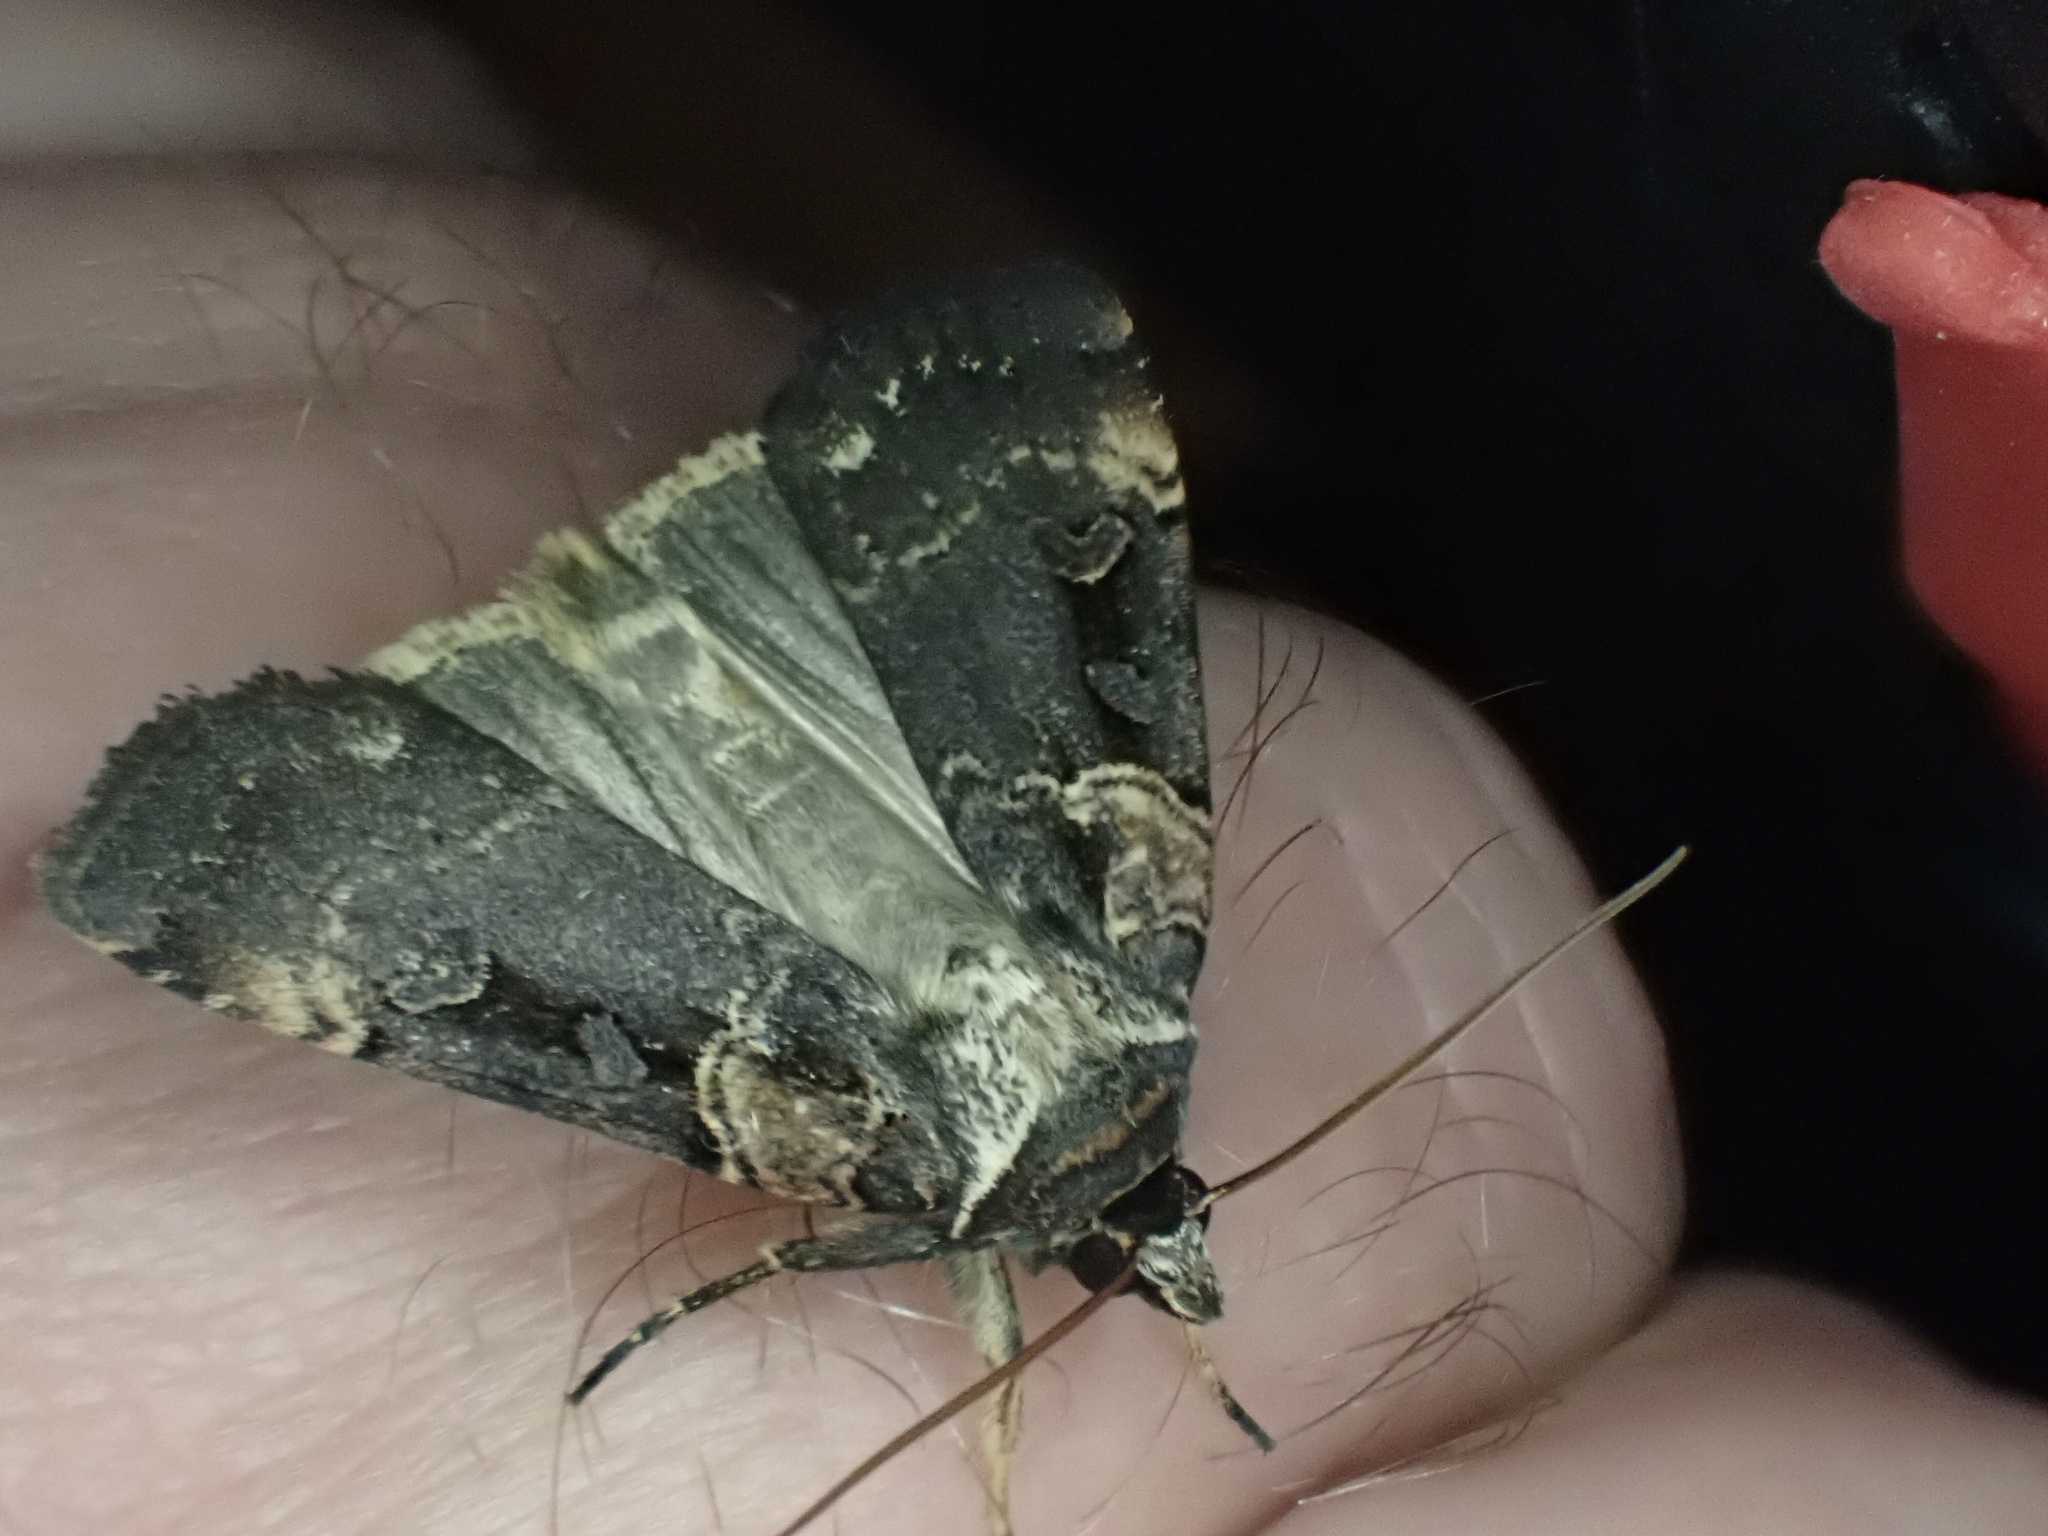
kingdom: Animalia
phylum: Arthropoda
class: Insecta
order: Lepidoptera
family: Noctuidae
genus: Pseudohermonassa
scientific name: Pseudohermonassa bicarnea
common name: Pink spotted dart
